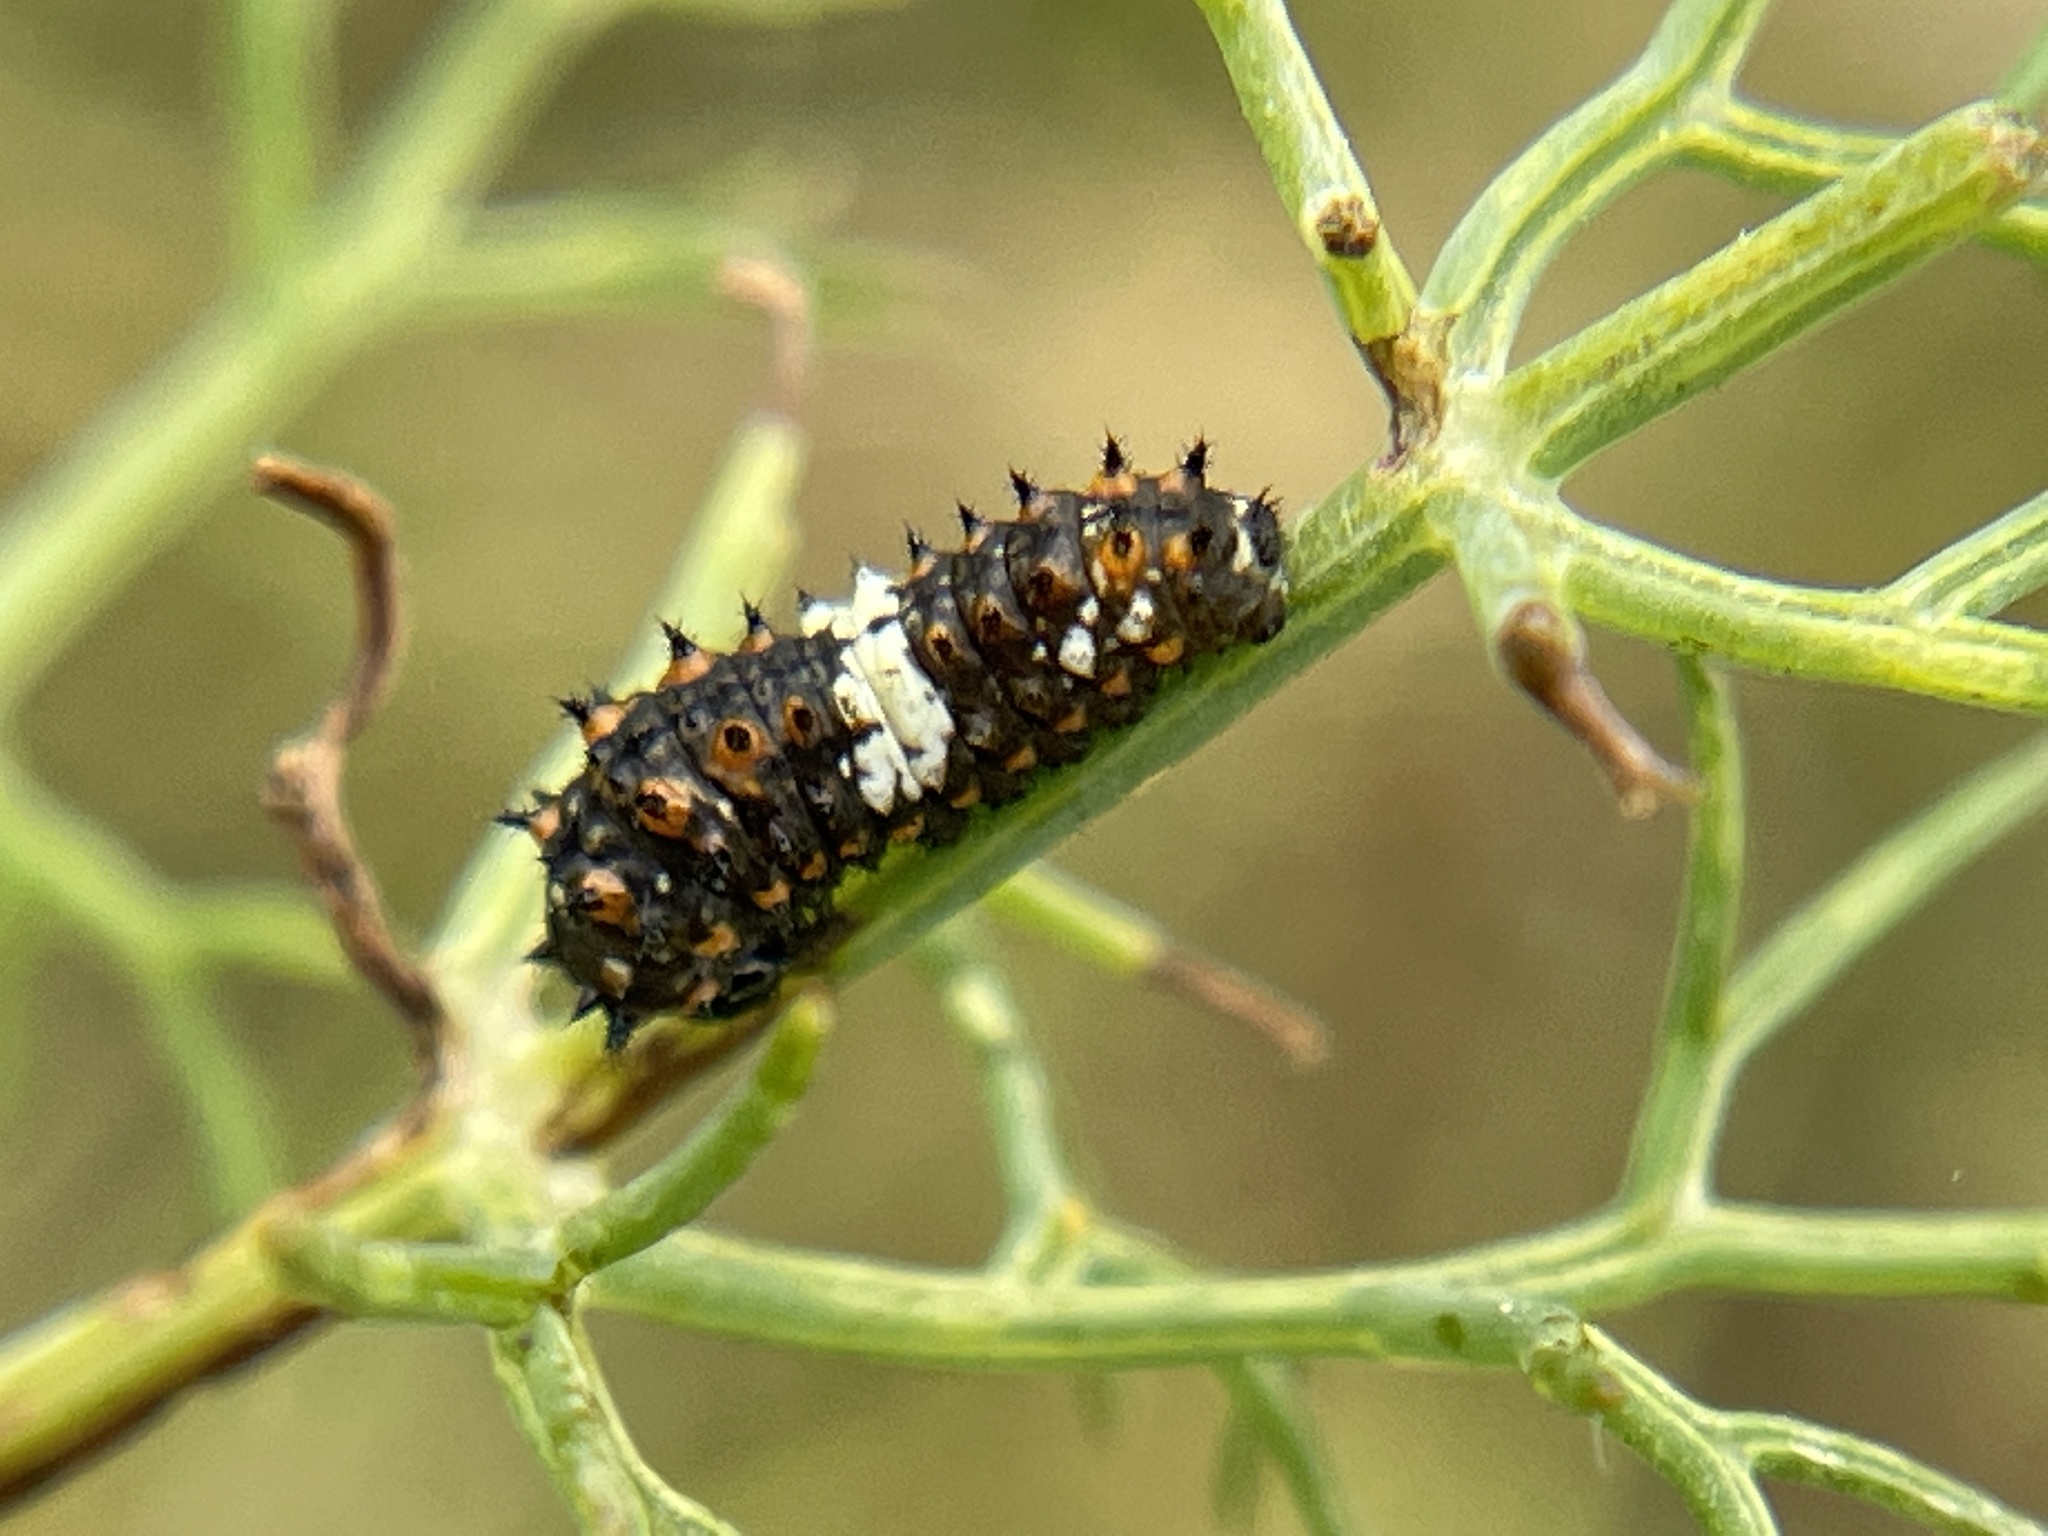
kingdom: Animalia
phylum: Arthropoda
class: Insecta
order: Lepidoptera
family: Papilionidae
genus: Papilio
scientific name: Papilio zelicaon
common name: Anise swallowtail
